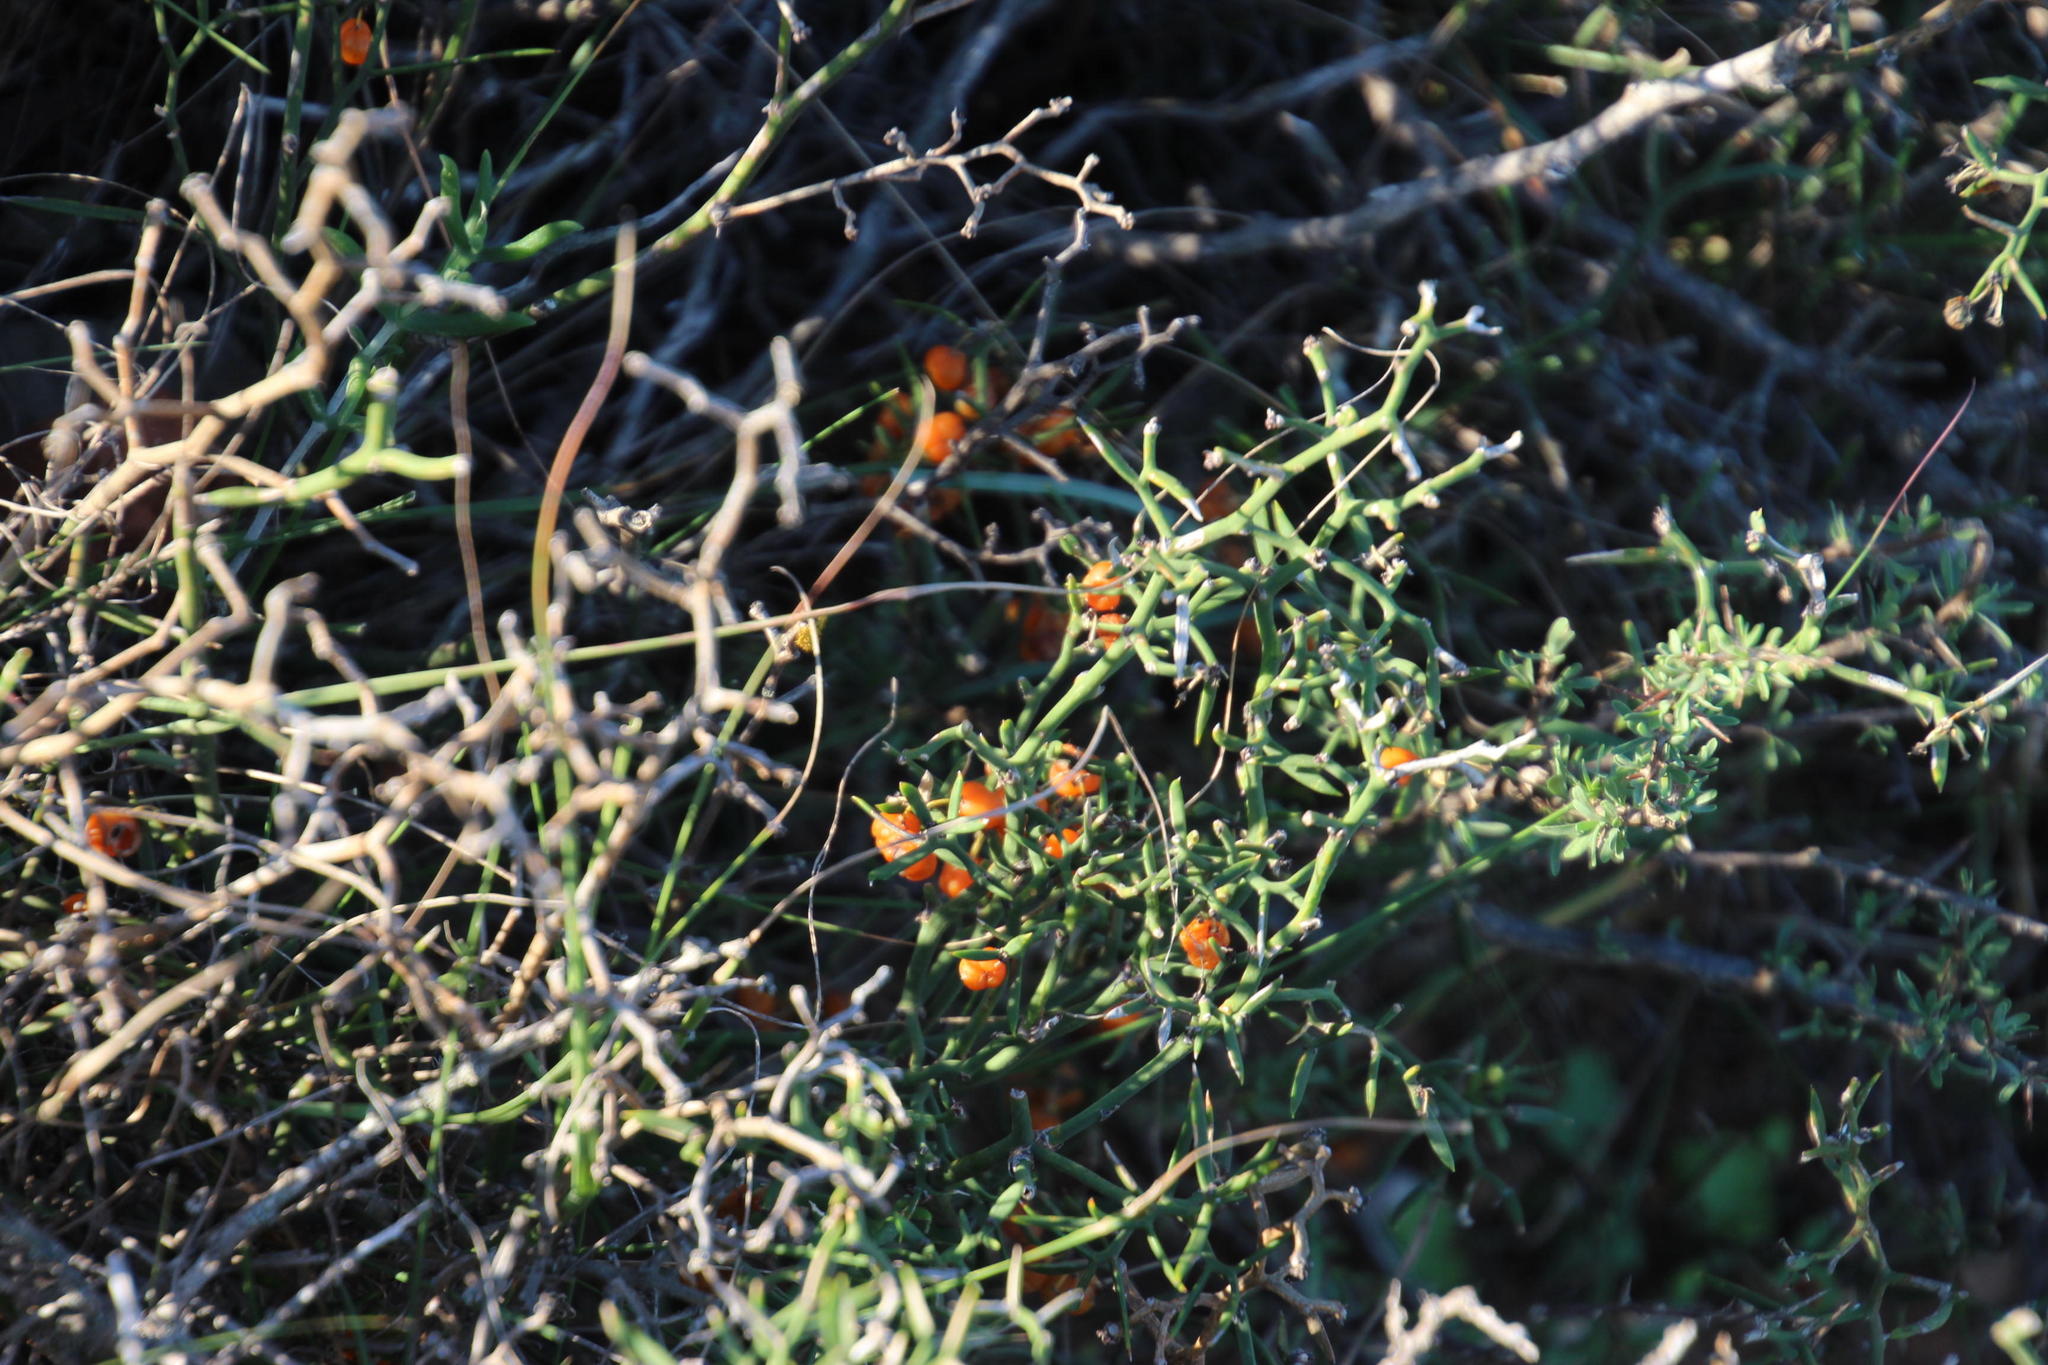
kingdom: Plantae
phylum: Tracheophyta
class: Liliopsida
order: Asparagales
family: Asparagaceae
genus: Asparagus
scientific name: Asparagus striatus
